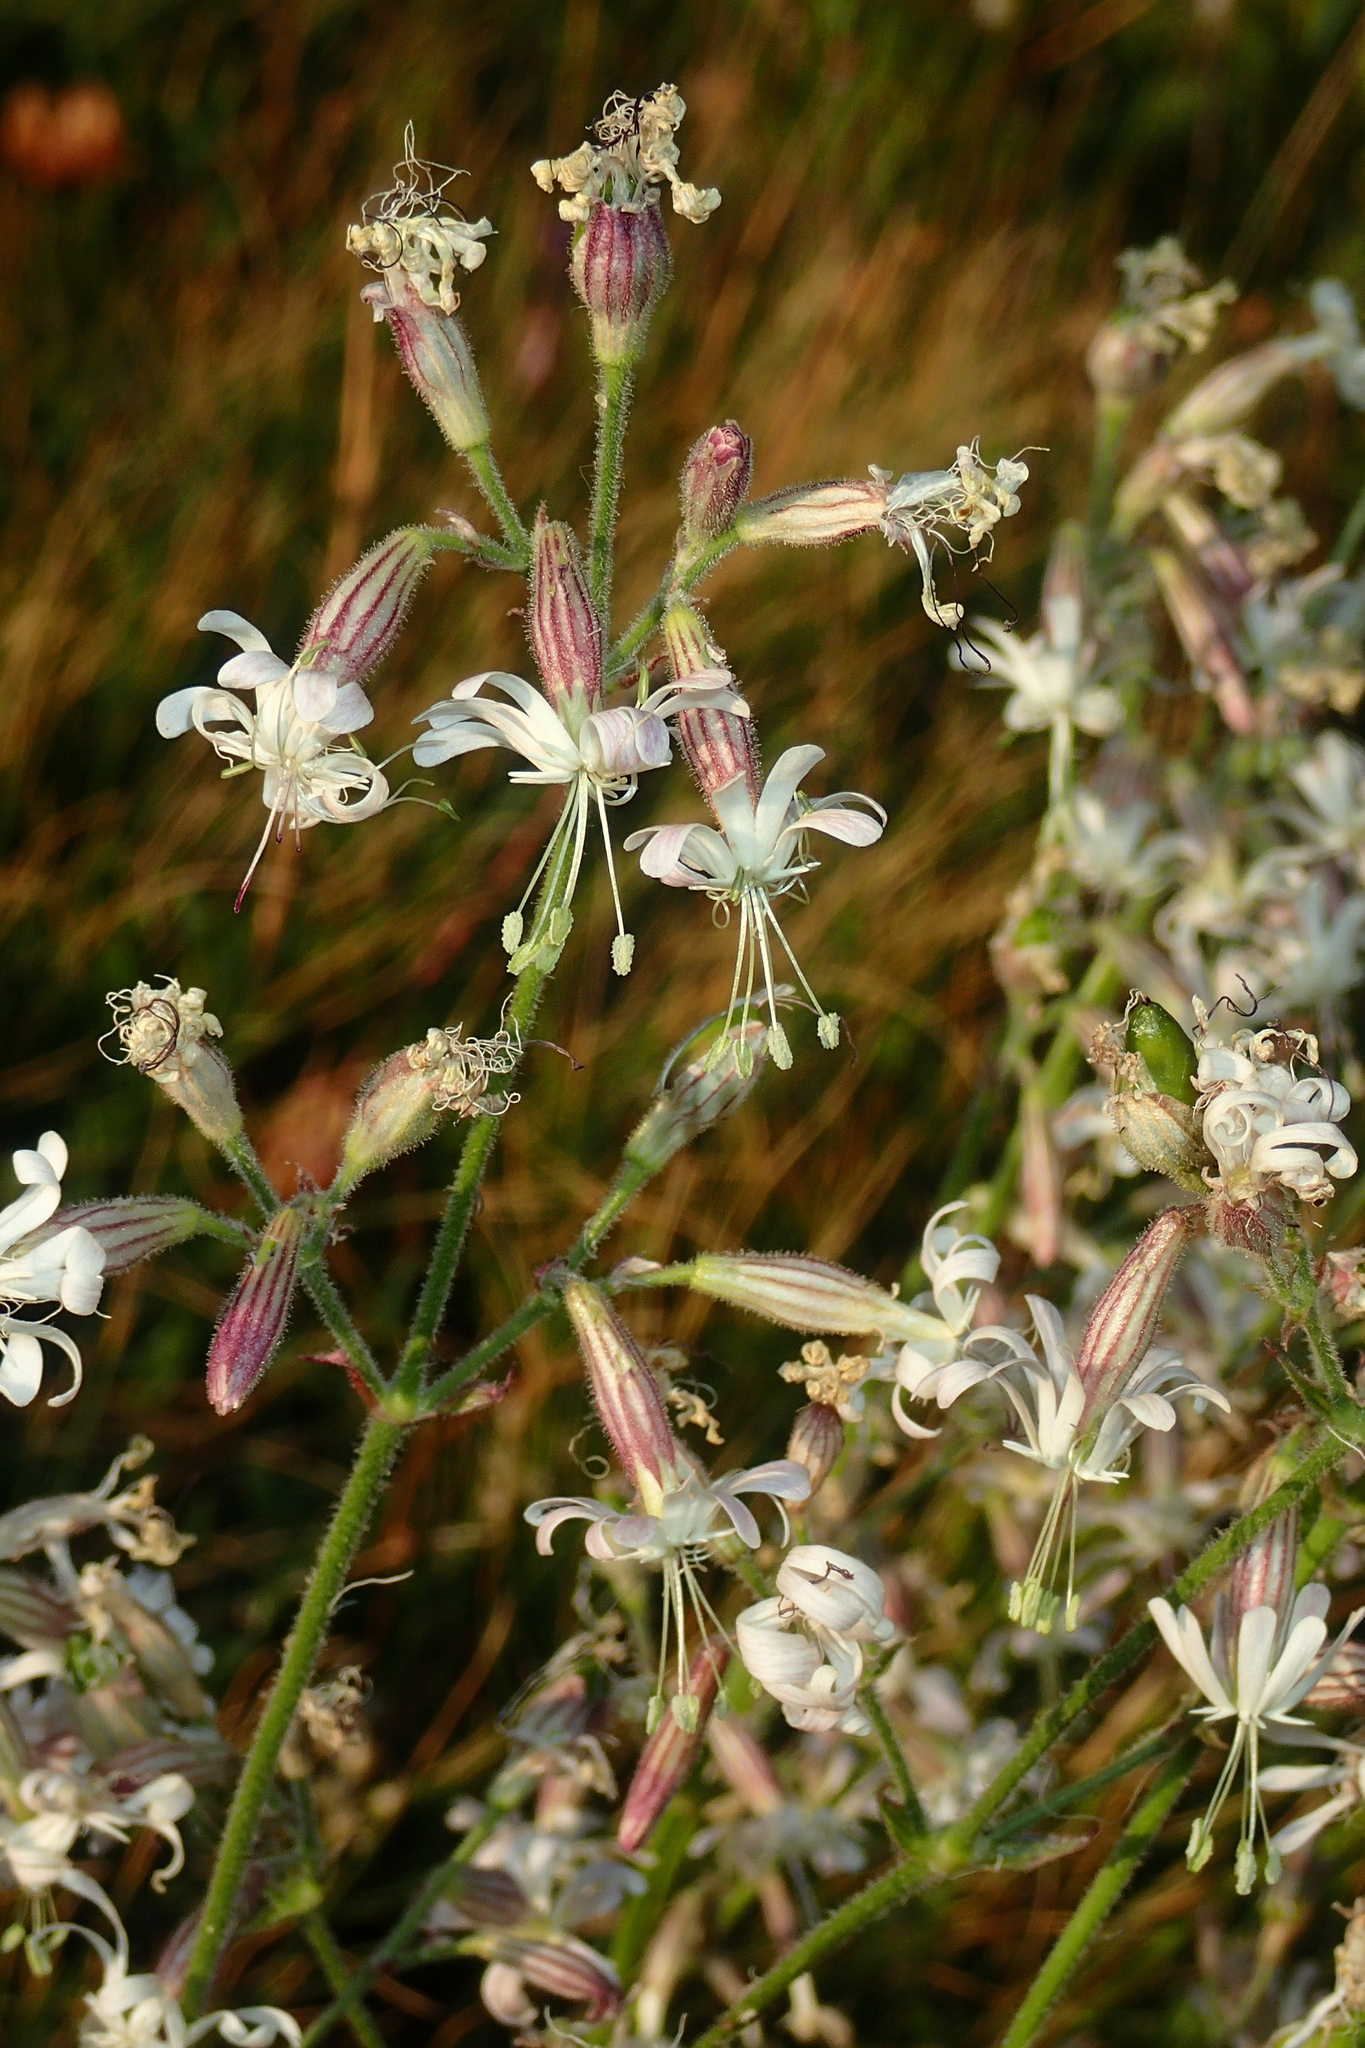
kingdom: Plantae
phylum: Tracheophyta
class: Magnoliopsida
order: Caryophyllales
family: Caryophyllaceae
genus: Silene
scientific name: Silene nutans
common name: Nottingham catchfly
